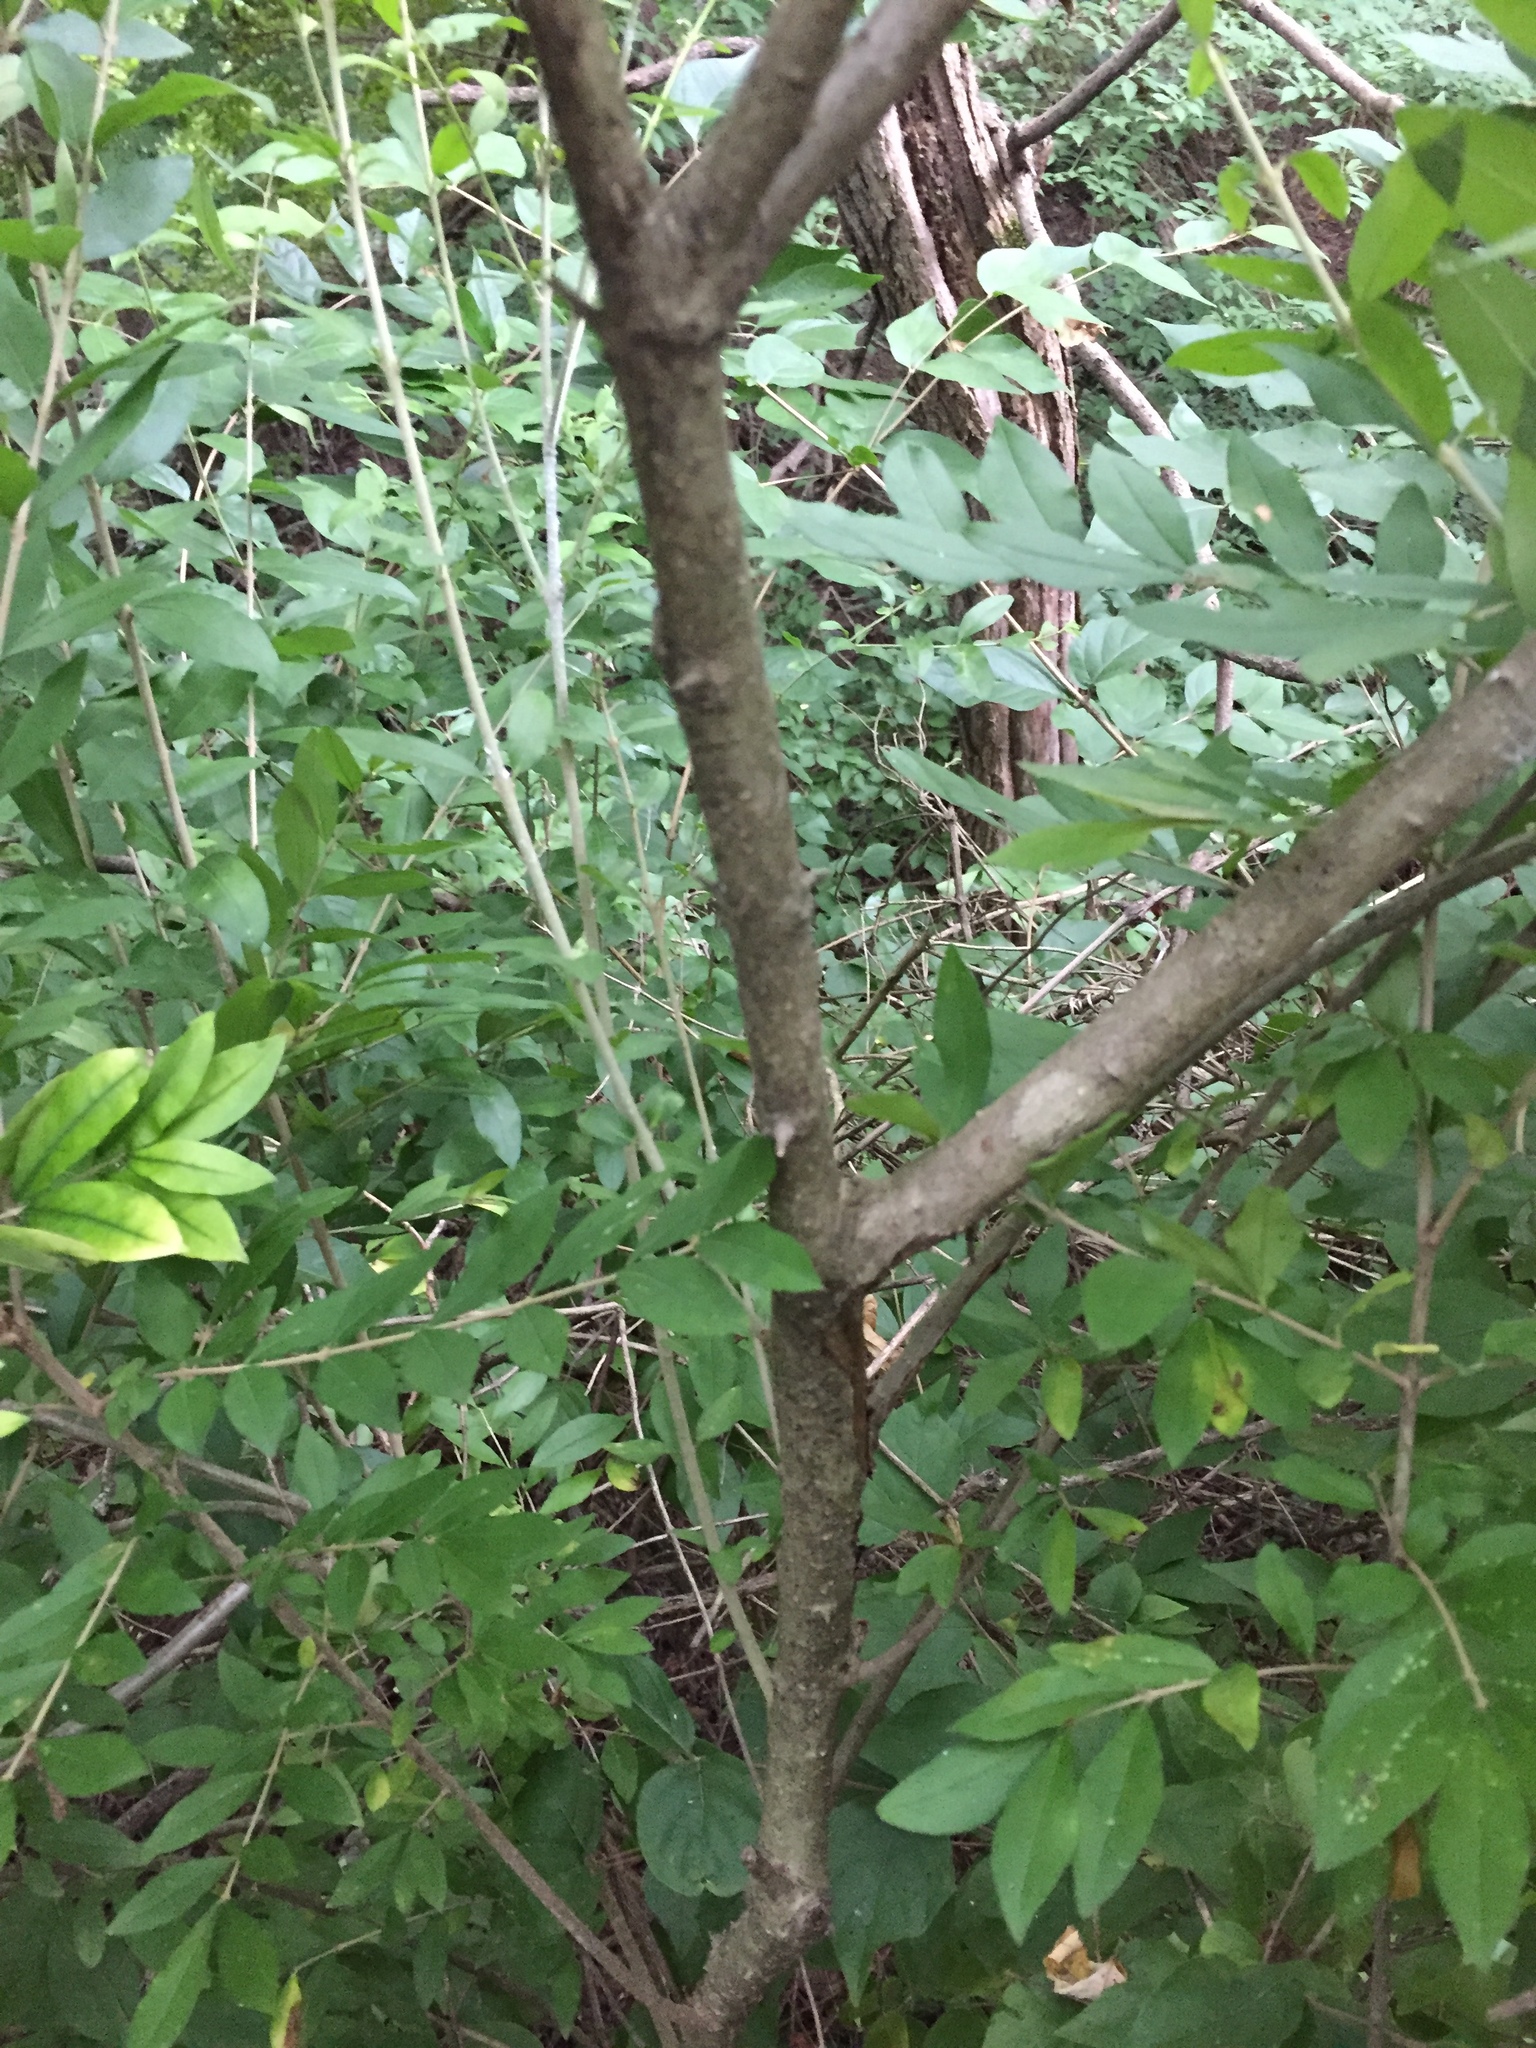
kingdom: Plantae
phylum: Tracheophyta
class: Magnoliopsida
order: Lamiales
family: Oleaceae
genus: Ligustrum
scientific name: Ligustrum obtusifolium
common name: Border privet
